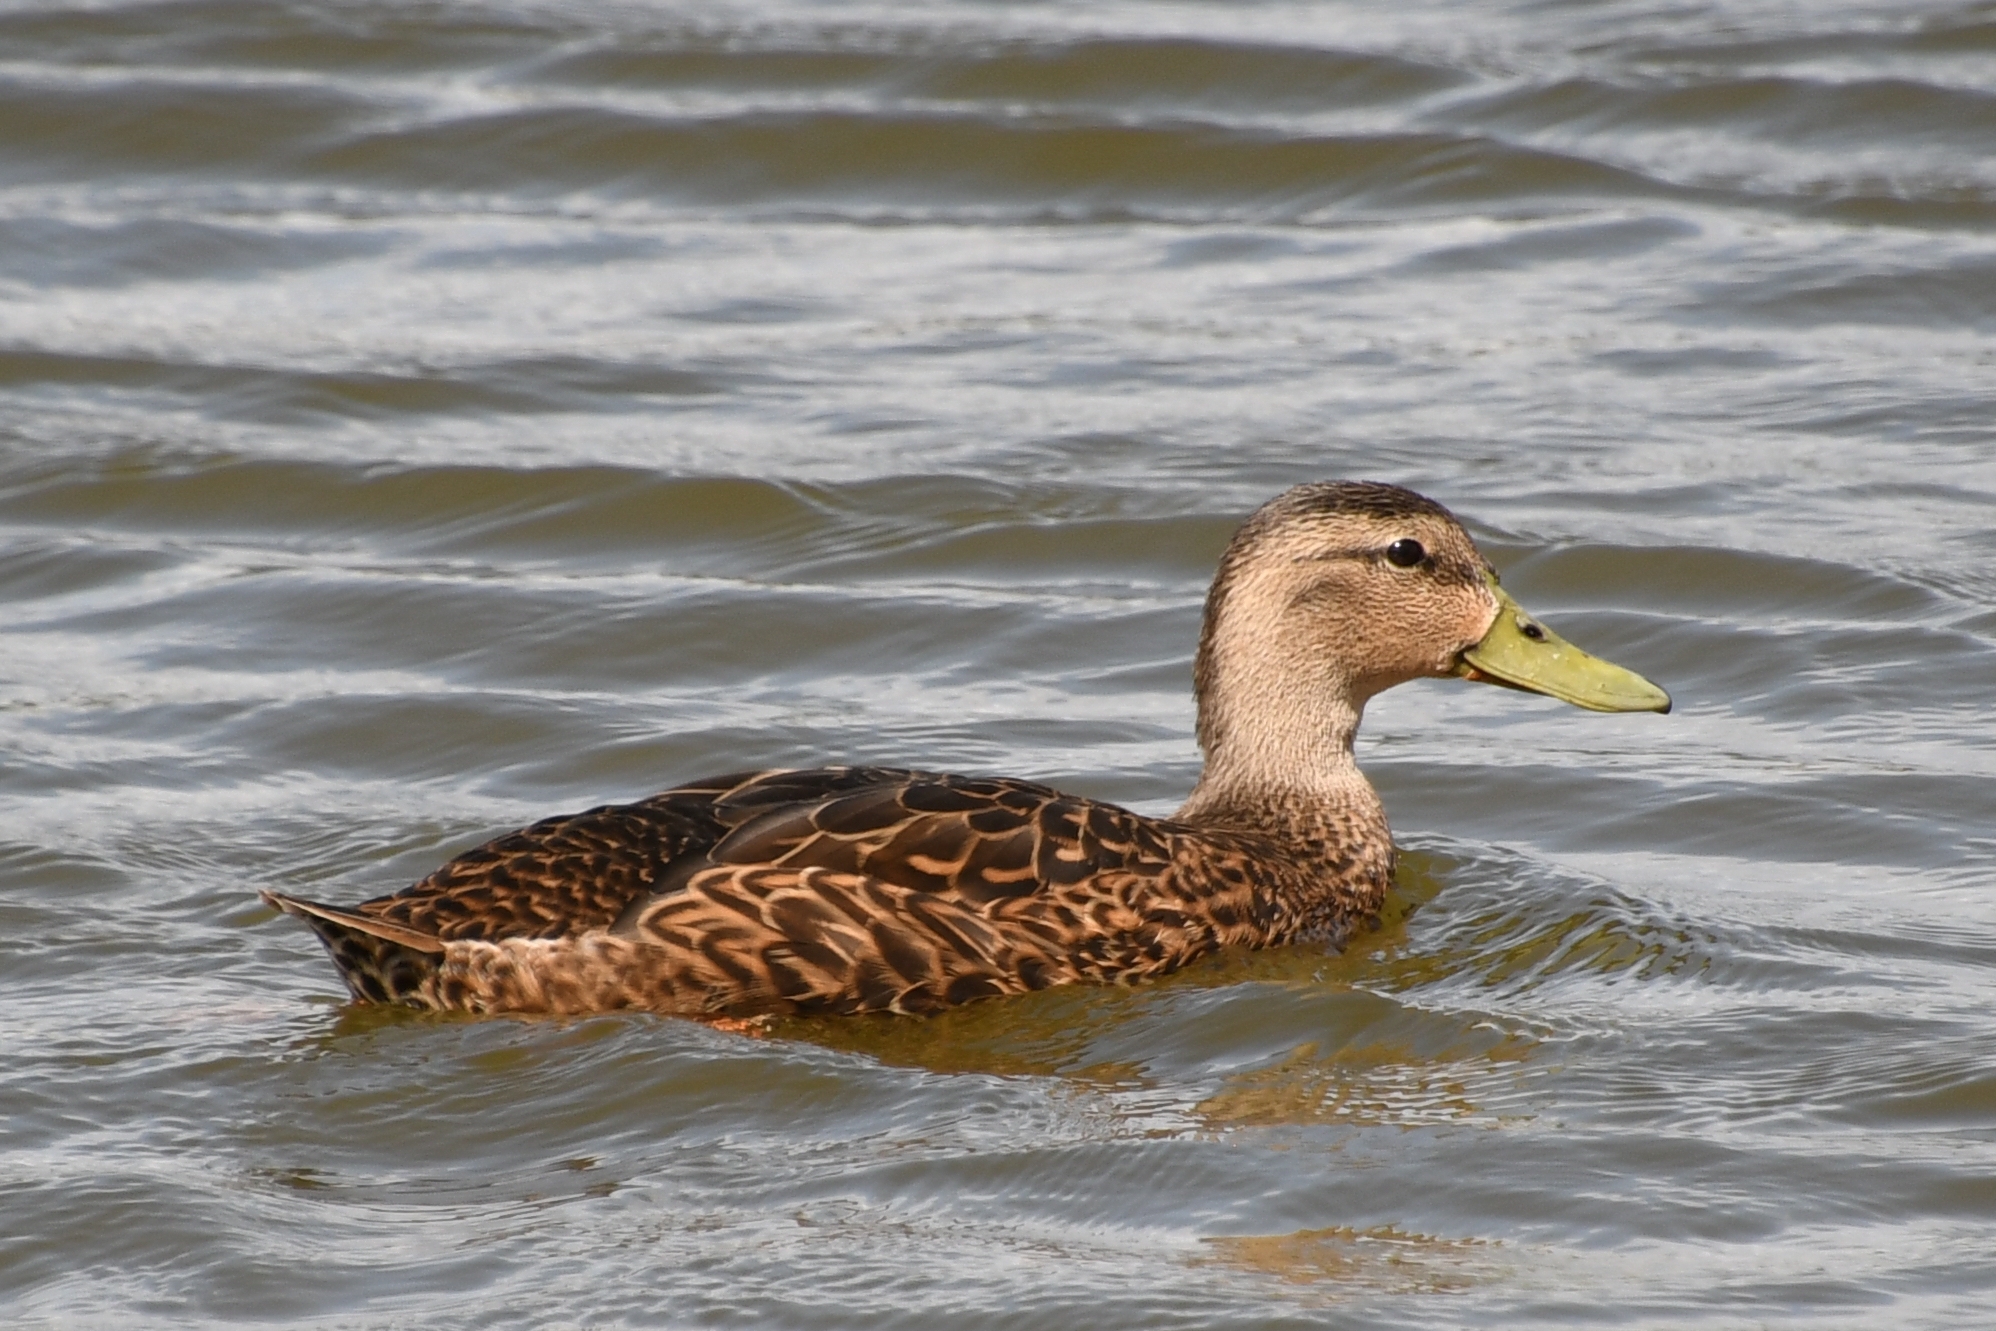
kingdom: Animalia
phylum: Chordata
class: Aves
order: Anseriformes
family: Anatidae
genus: Anas
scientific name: Anas diazi
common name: Mexican duck
